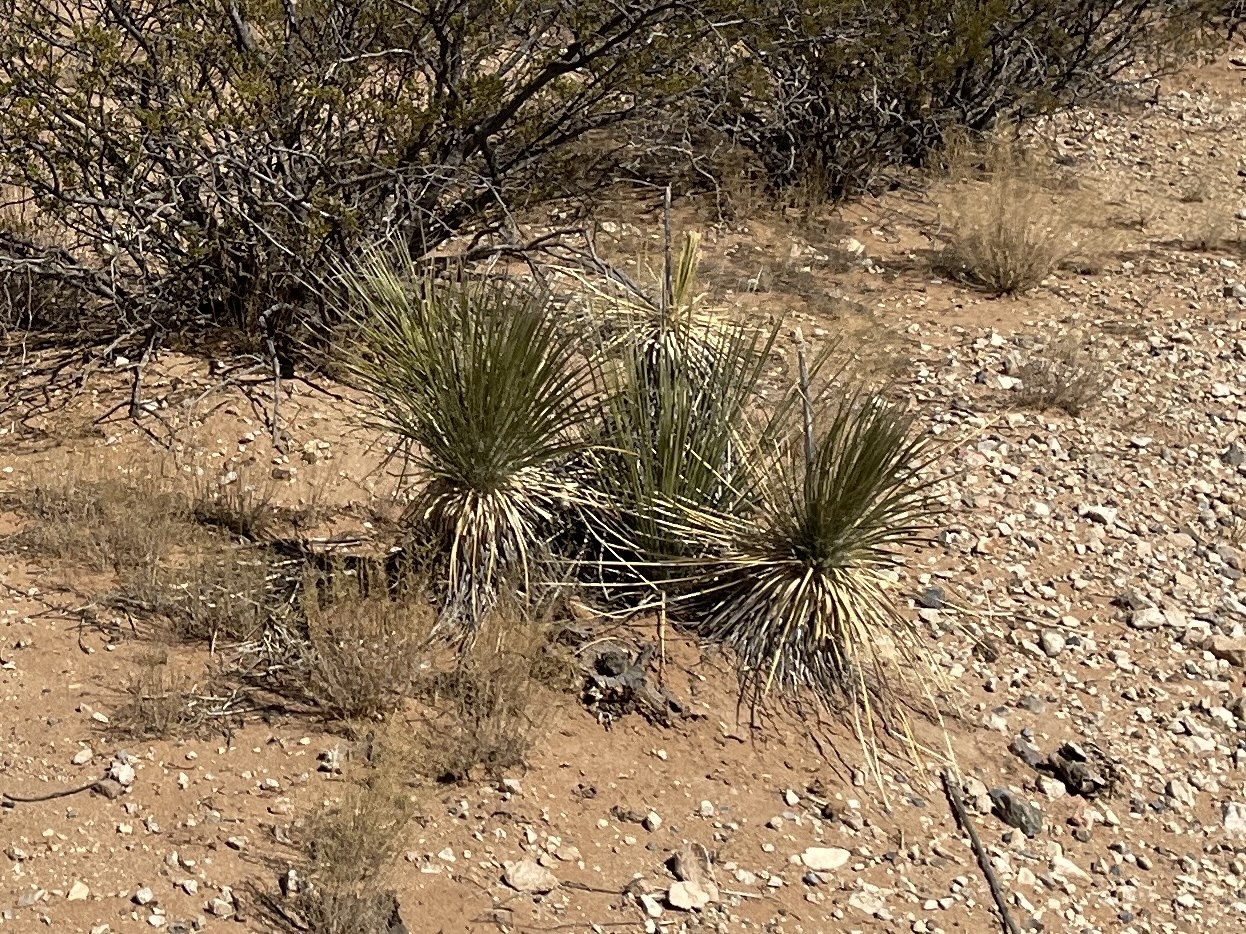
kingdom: Plantae
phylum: Tracheophyta
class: Liliopsida
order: Asparagales
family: Asparagaceae
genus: Yucca
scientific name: Yucca elata
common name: Palmella
